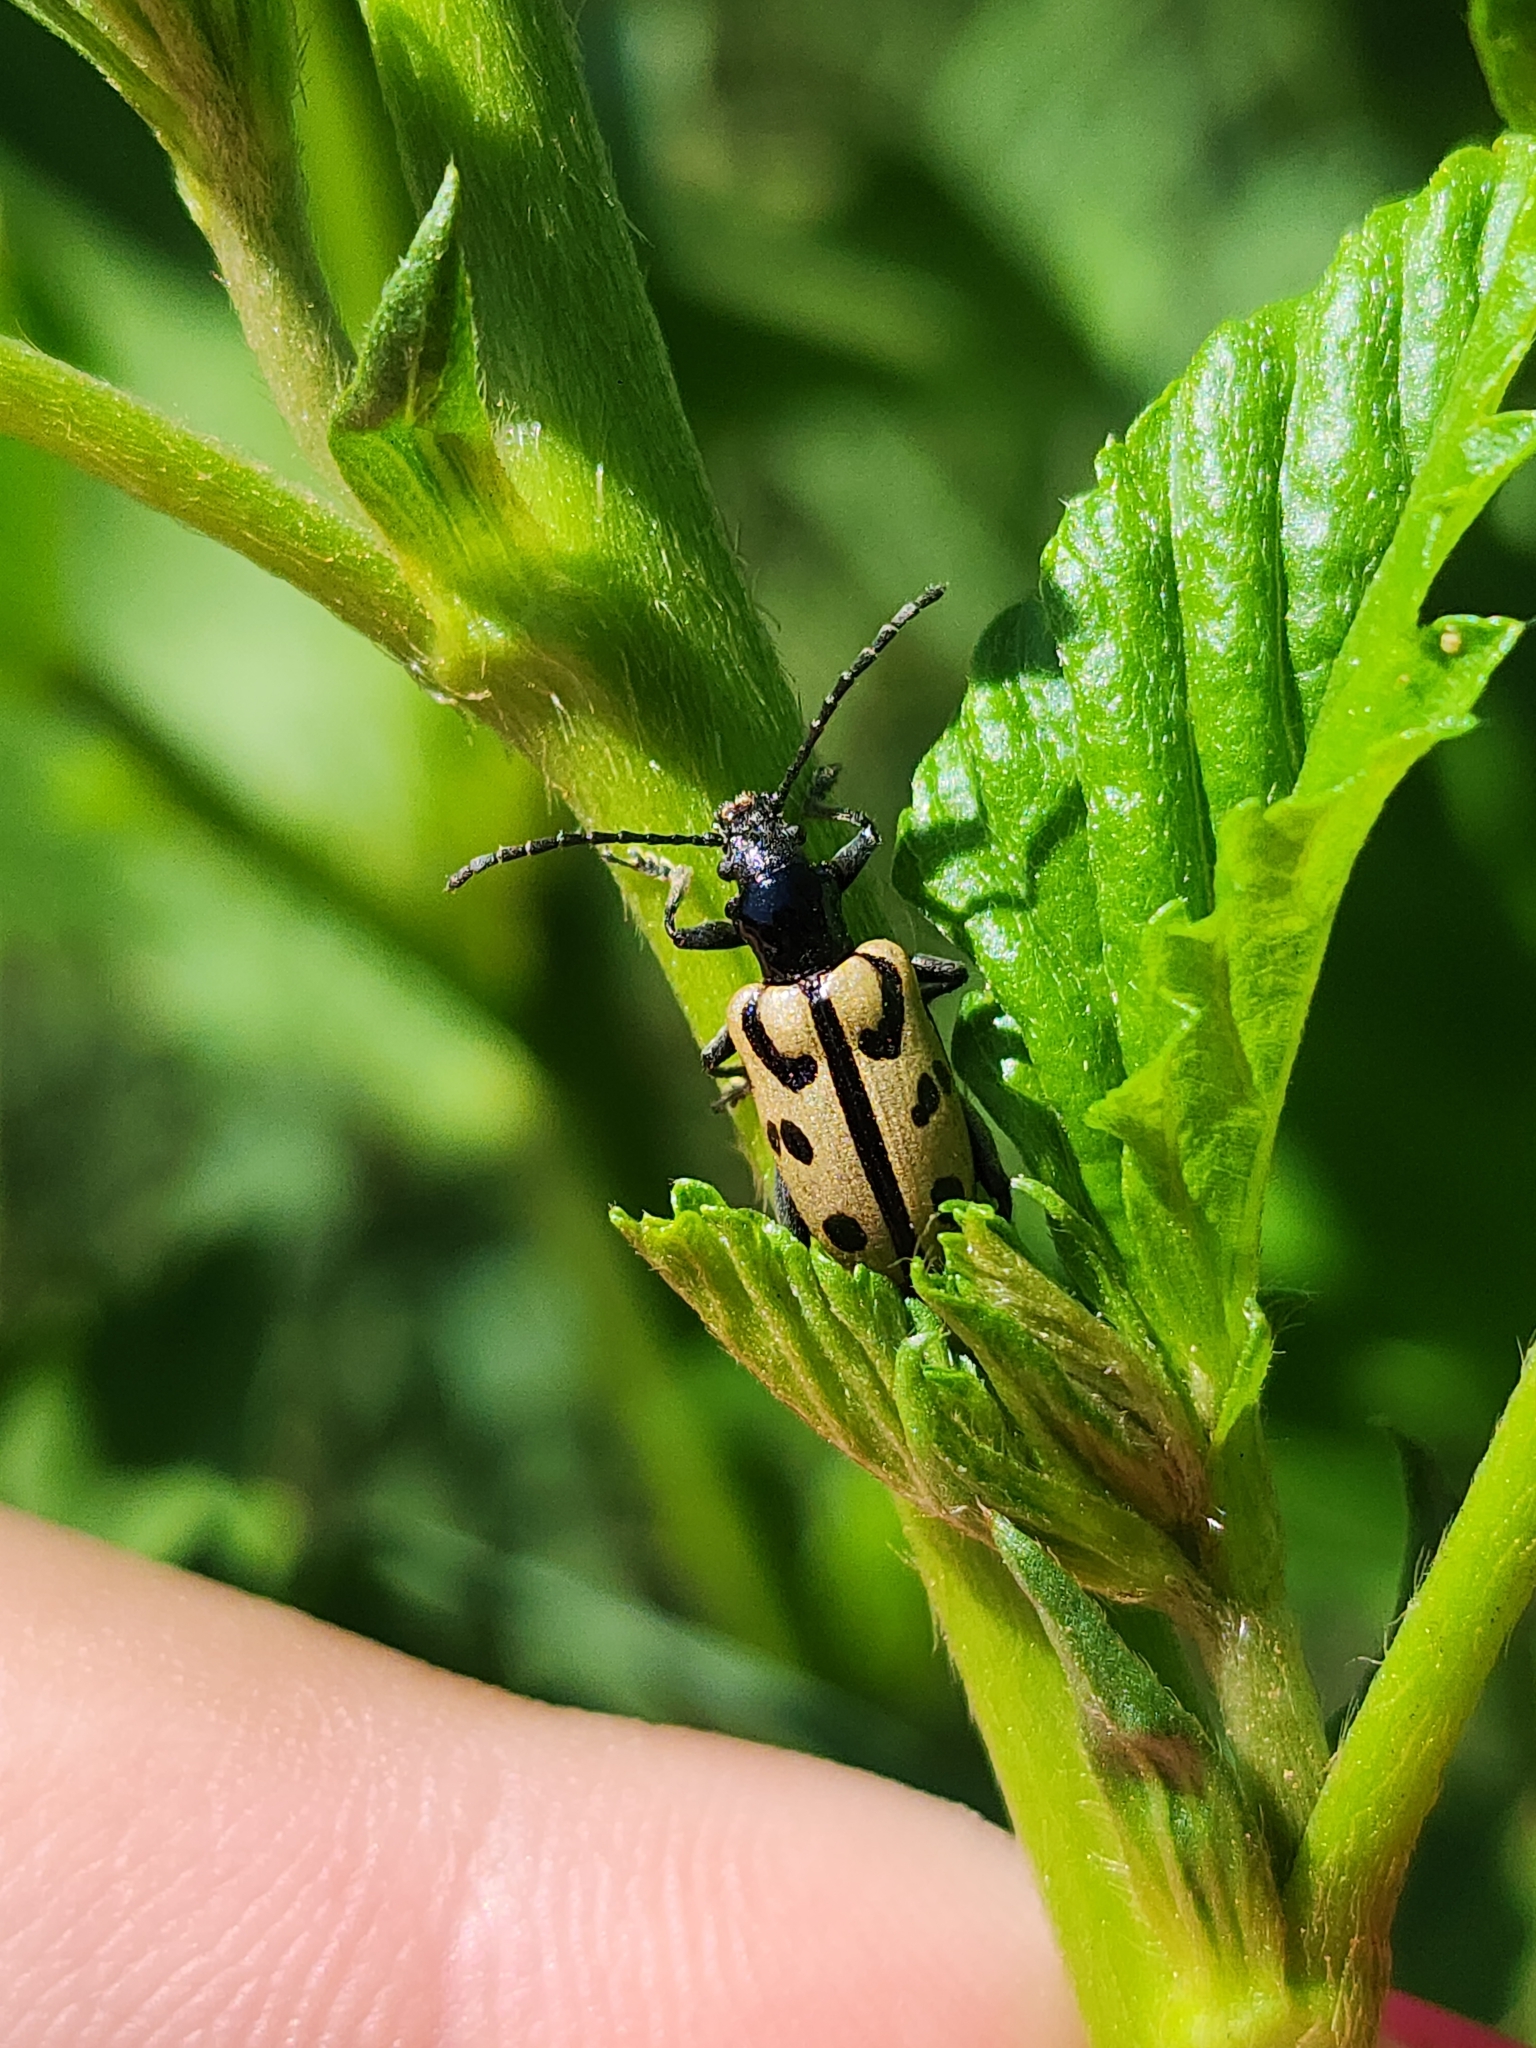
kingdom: Animalia
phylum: Arthropoda
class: Insecta
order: Coleoptera
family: Chrysomelidae
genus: Atalasis
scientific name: Atalasis
